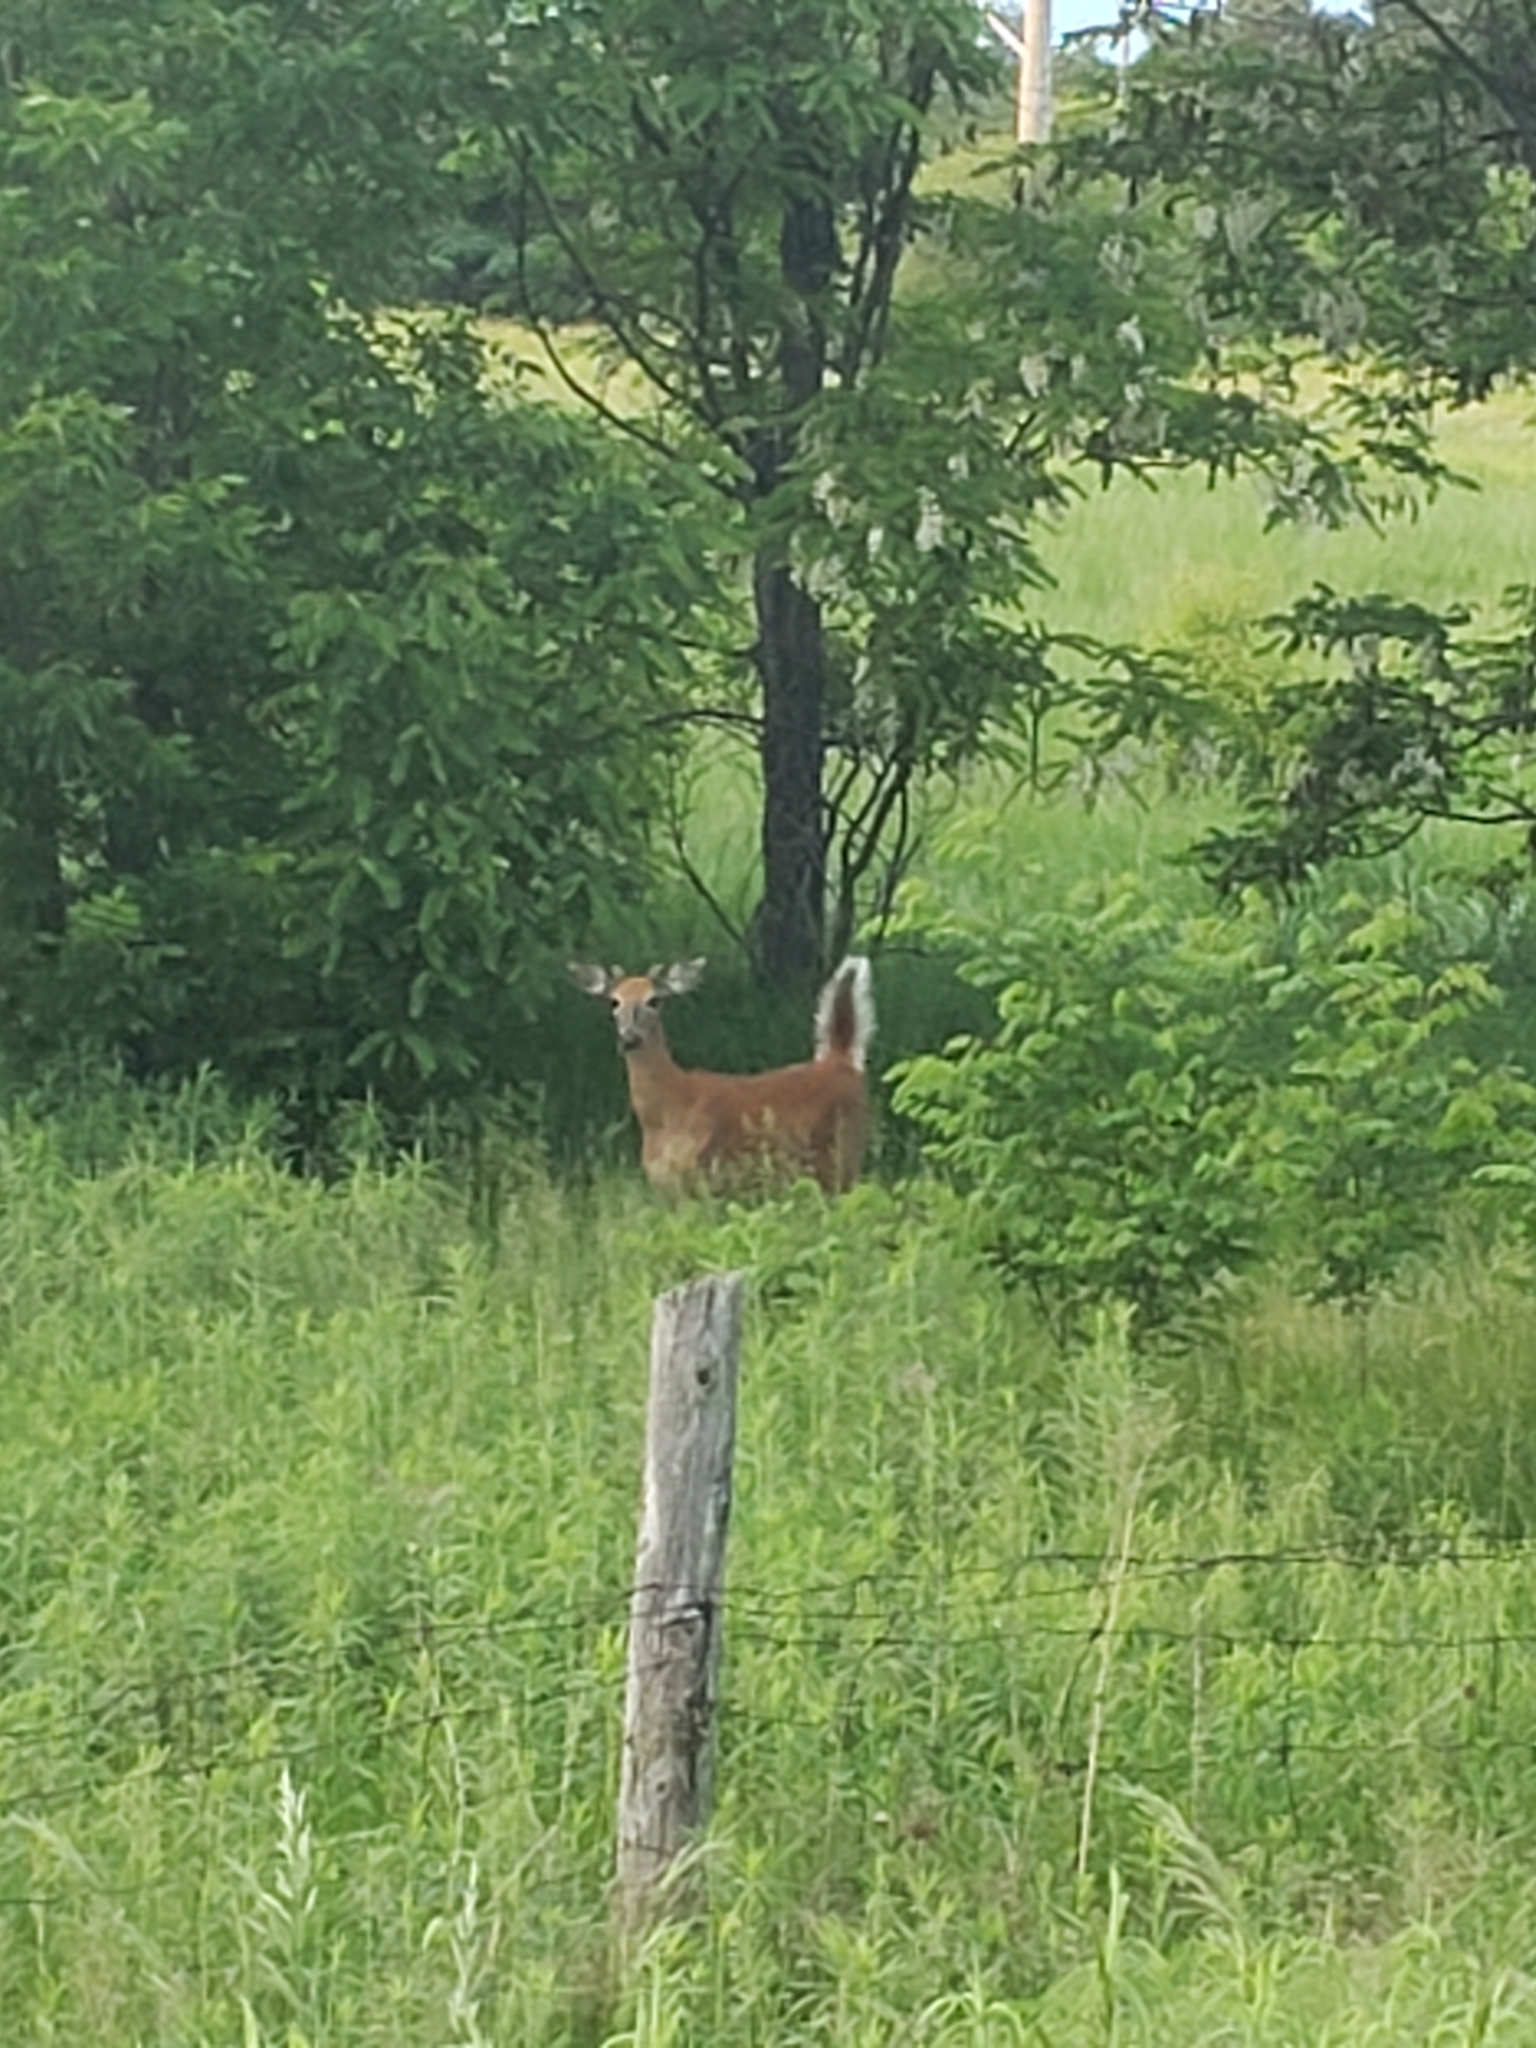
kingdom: Animalia
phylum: Chordata
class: Mammalia
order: Artiodactyla
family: Cervidae
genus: Odocoileus
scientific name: Odocoileus virginianus
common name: White-tailed deer
